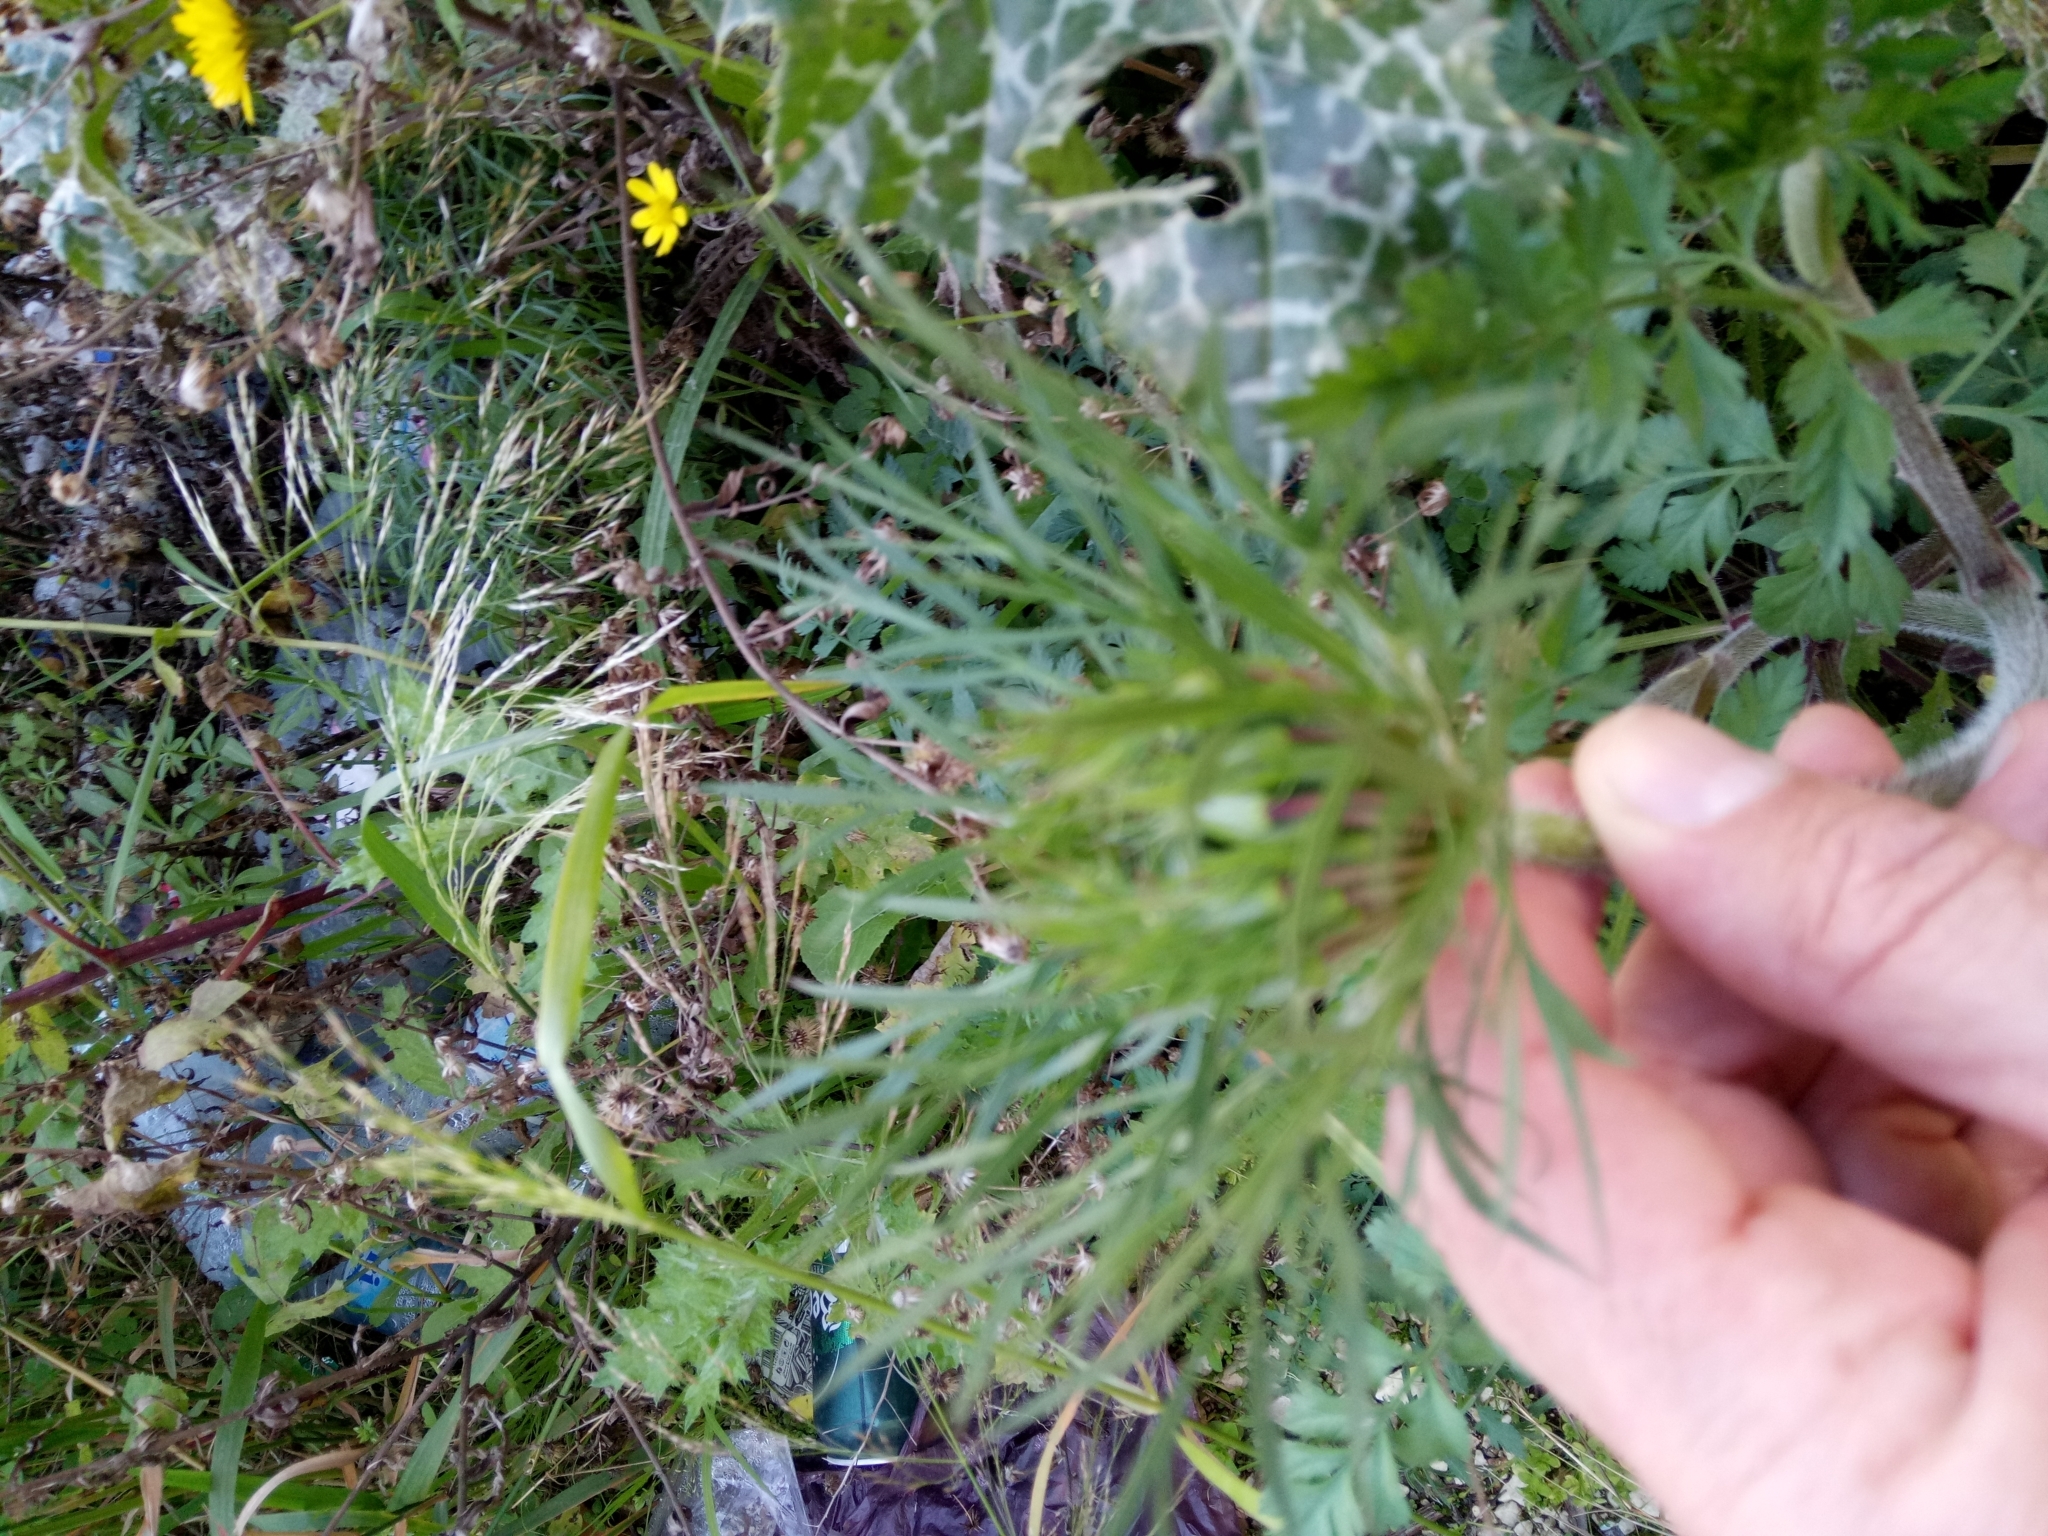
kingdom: Plantae
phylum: Tracheophyta
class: Magnoliopsida
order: Apiales
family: Apiaceae
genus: Daucus
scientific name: Daucus carota
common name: Wild carrot
